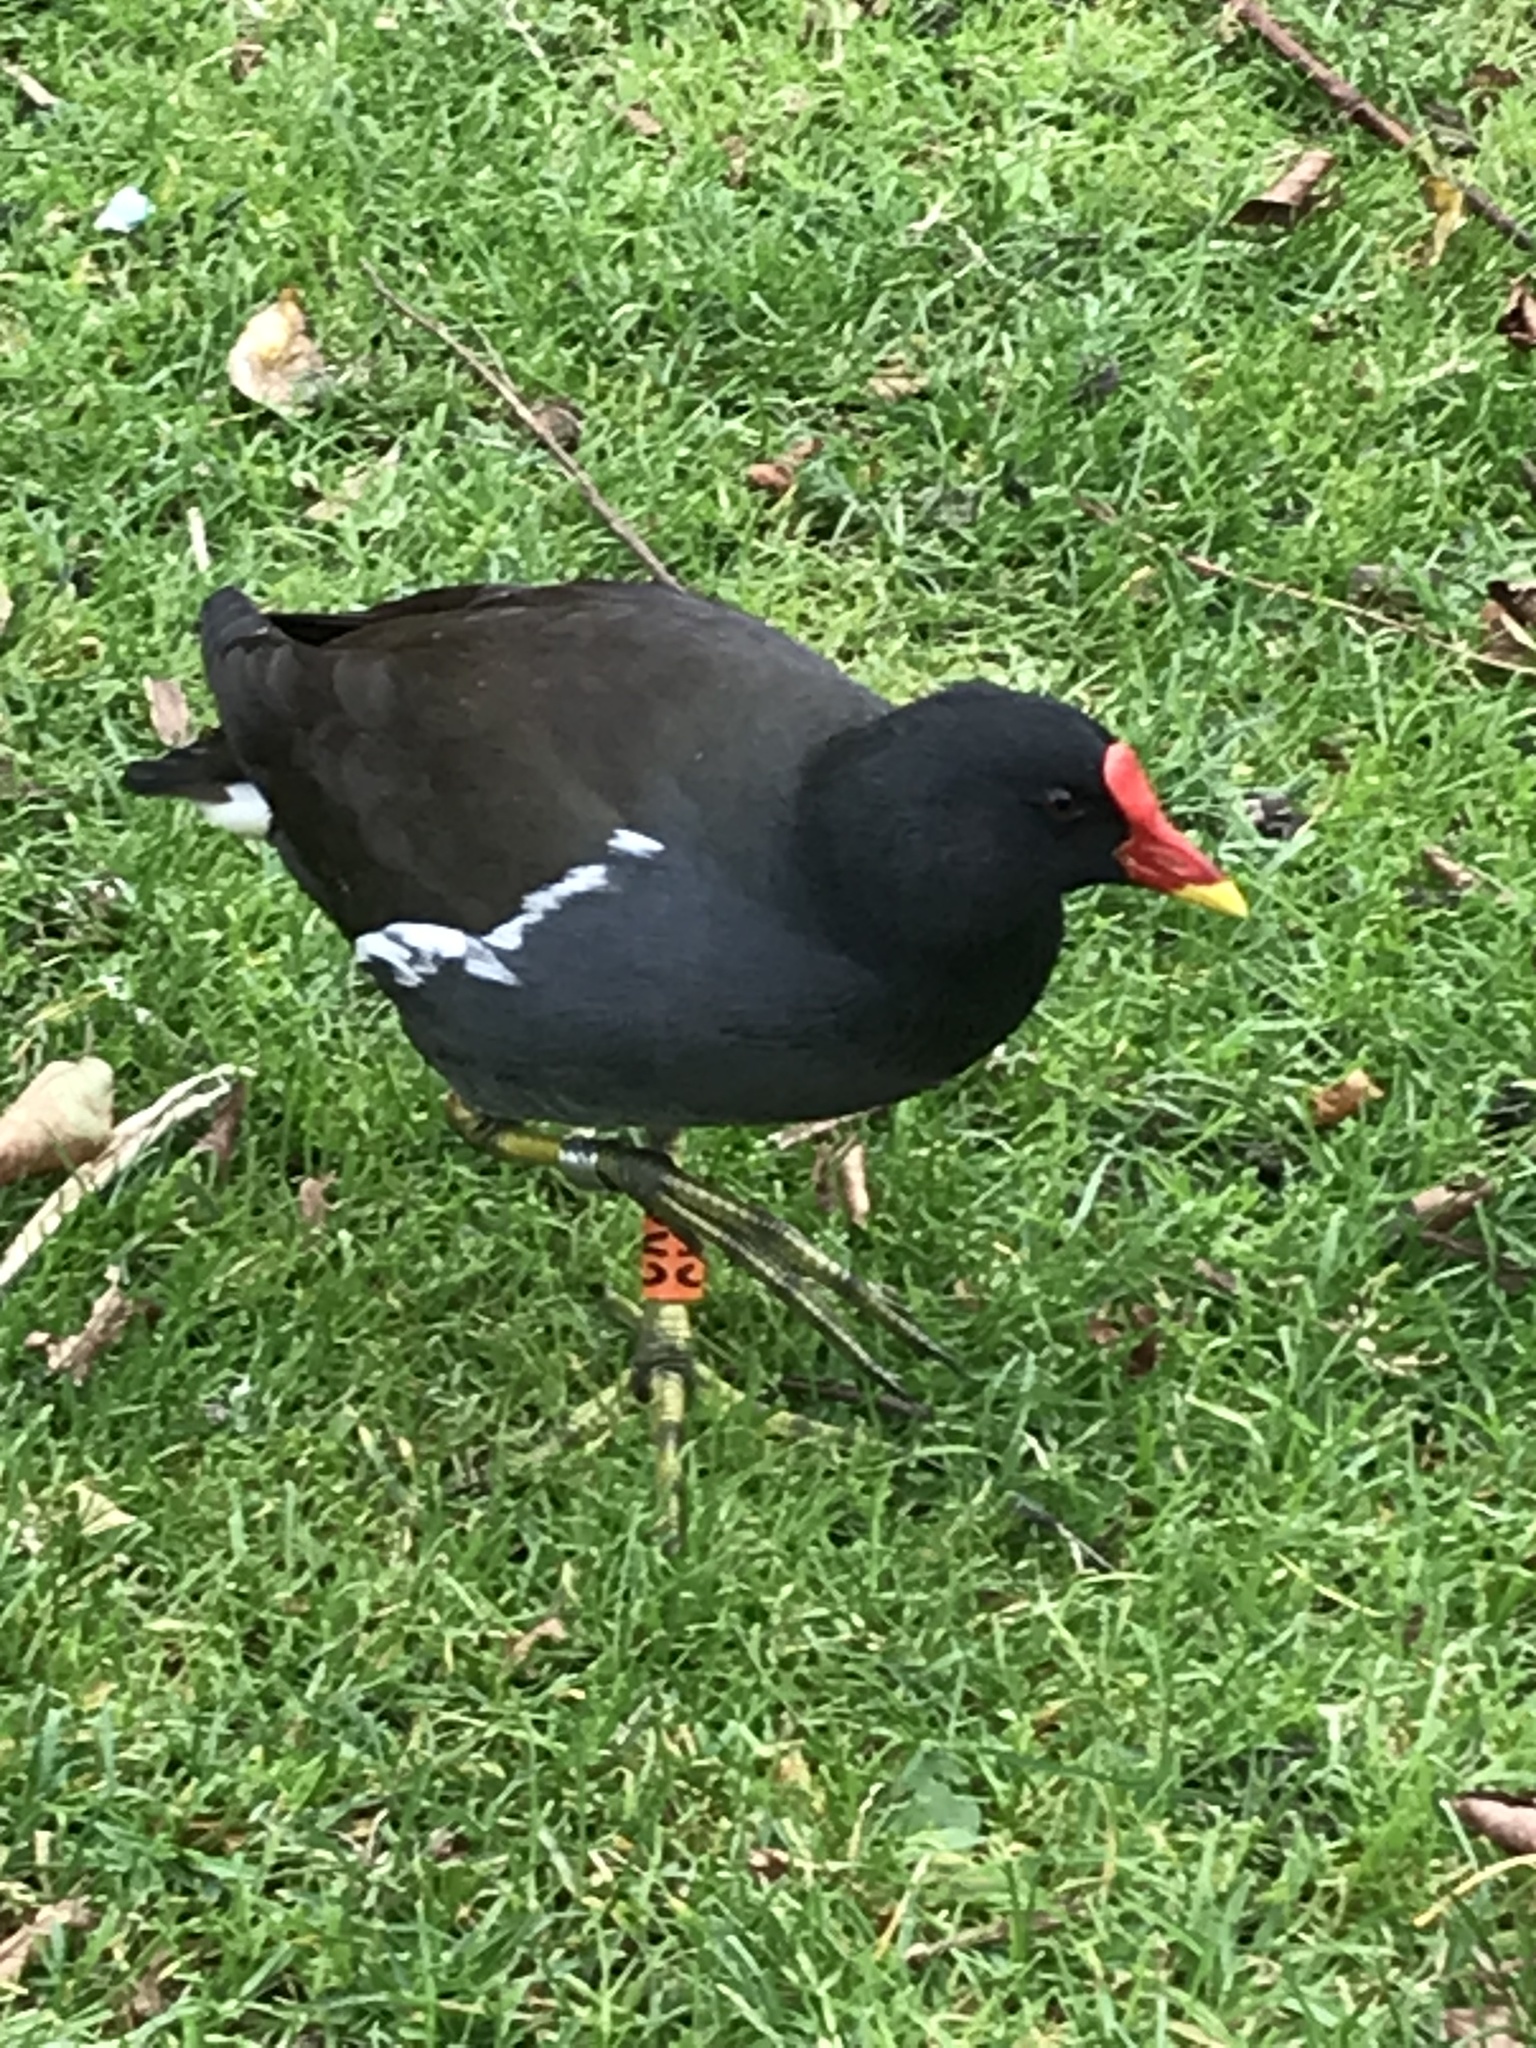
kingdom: Animalia
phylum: Chordata
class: Aves
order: Gruiformes
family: Rallidae
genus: Gallinula
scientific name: Gallinula chloropus
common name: Common moorhen
